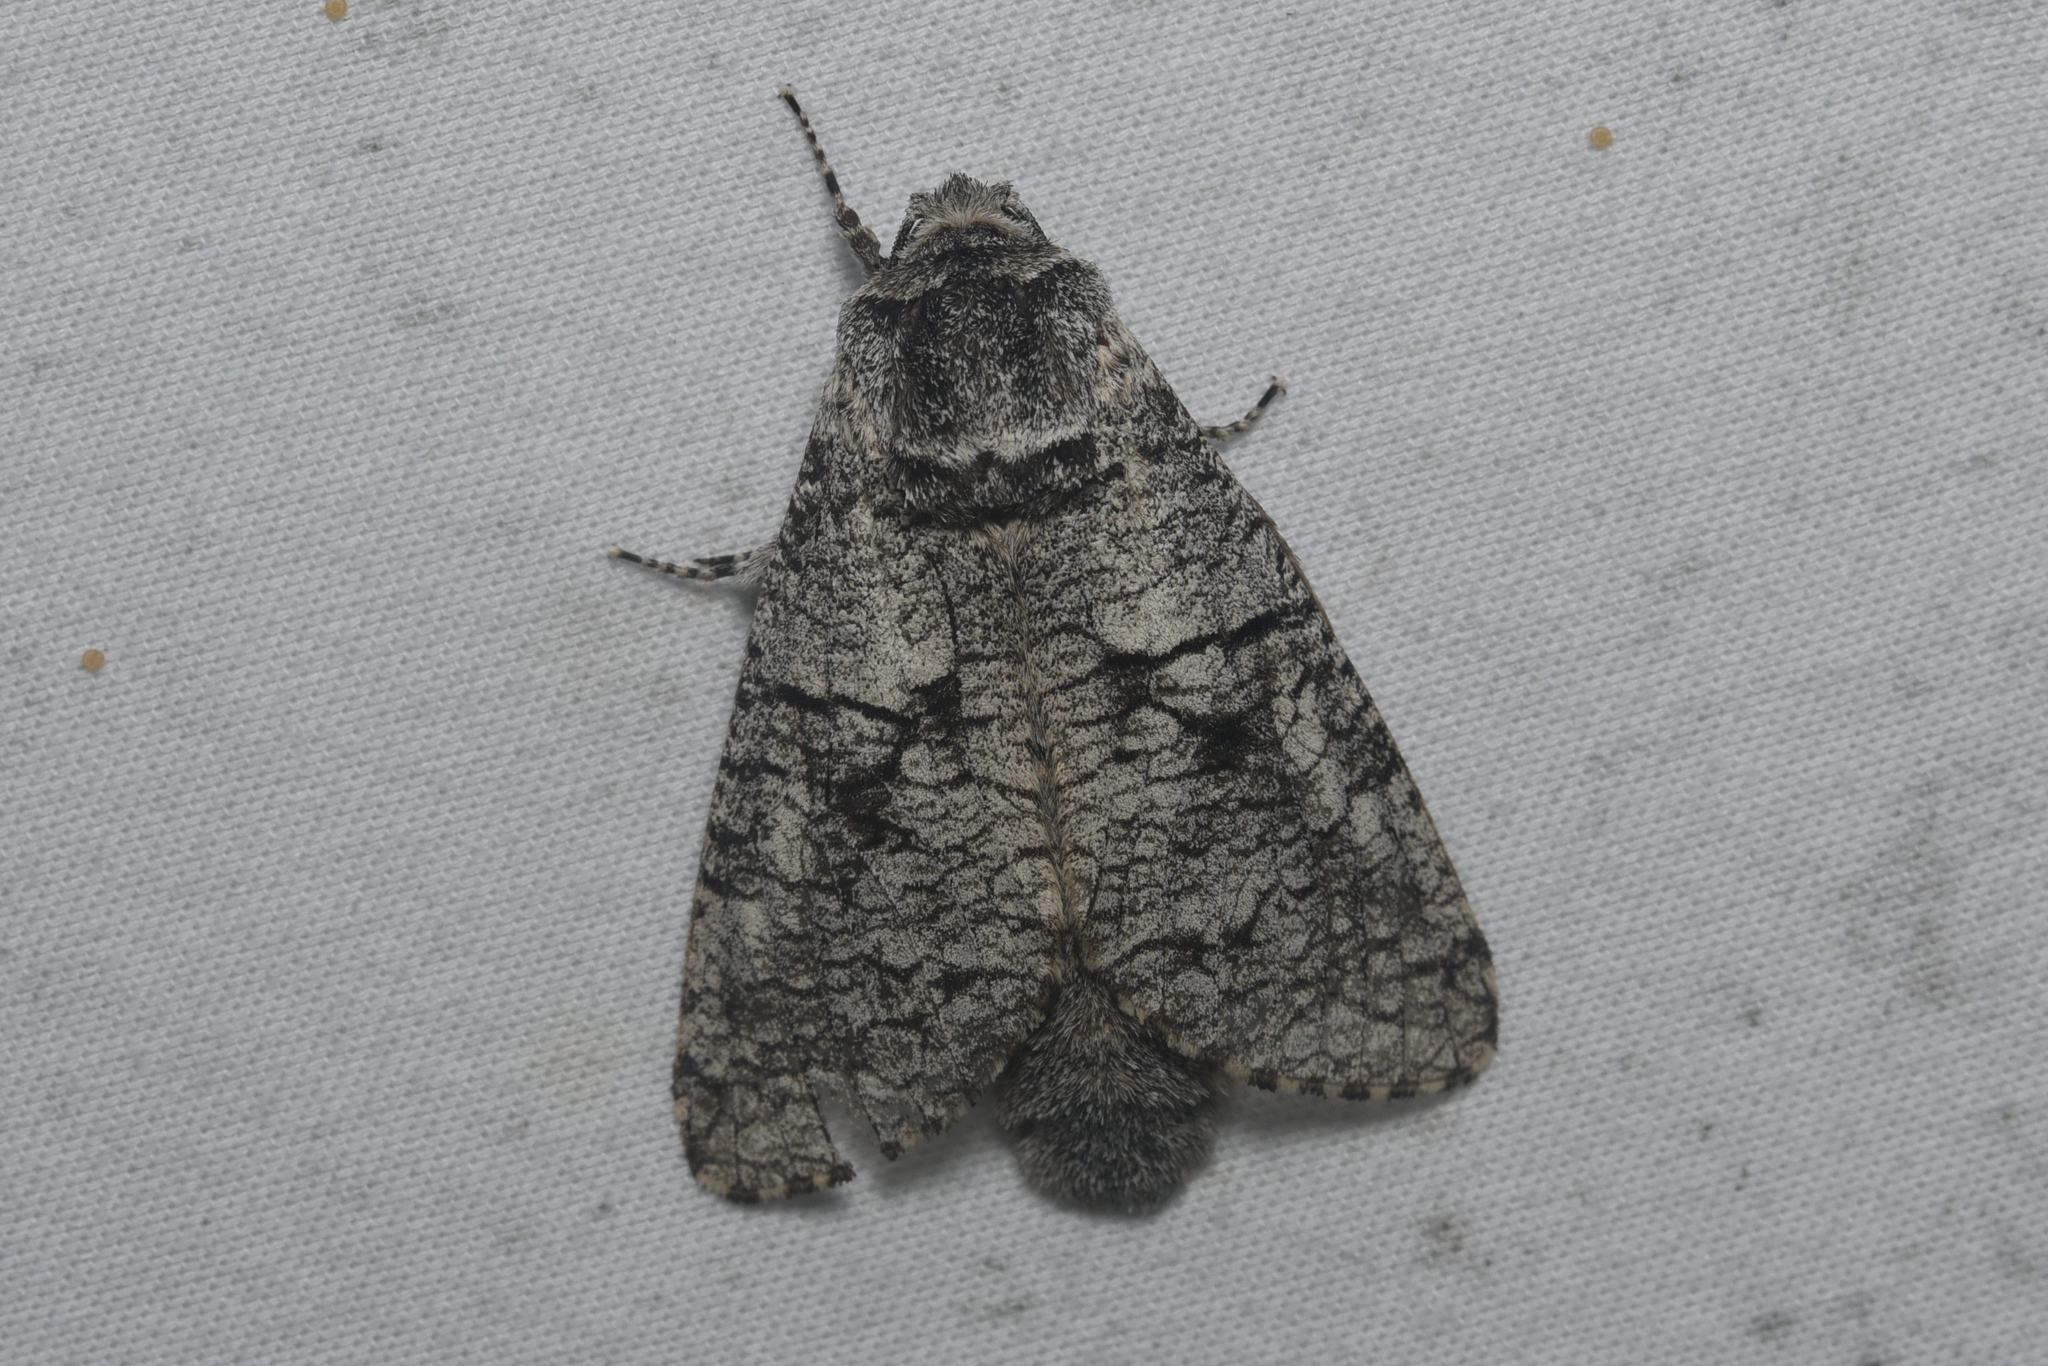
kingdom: Animalia
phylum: Arthropoda
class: Insecta
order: Lepidoptera
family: Cossidae
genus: Acossus
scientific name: Acossus populi
